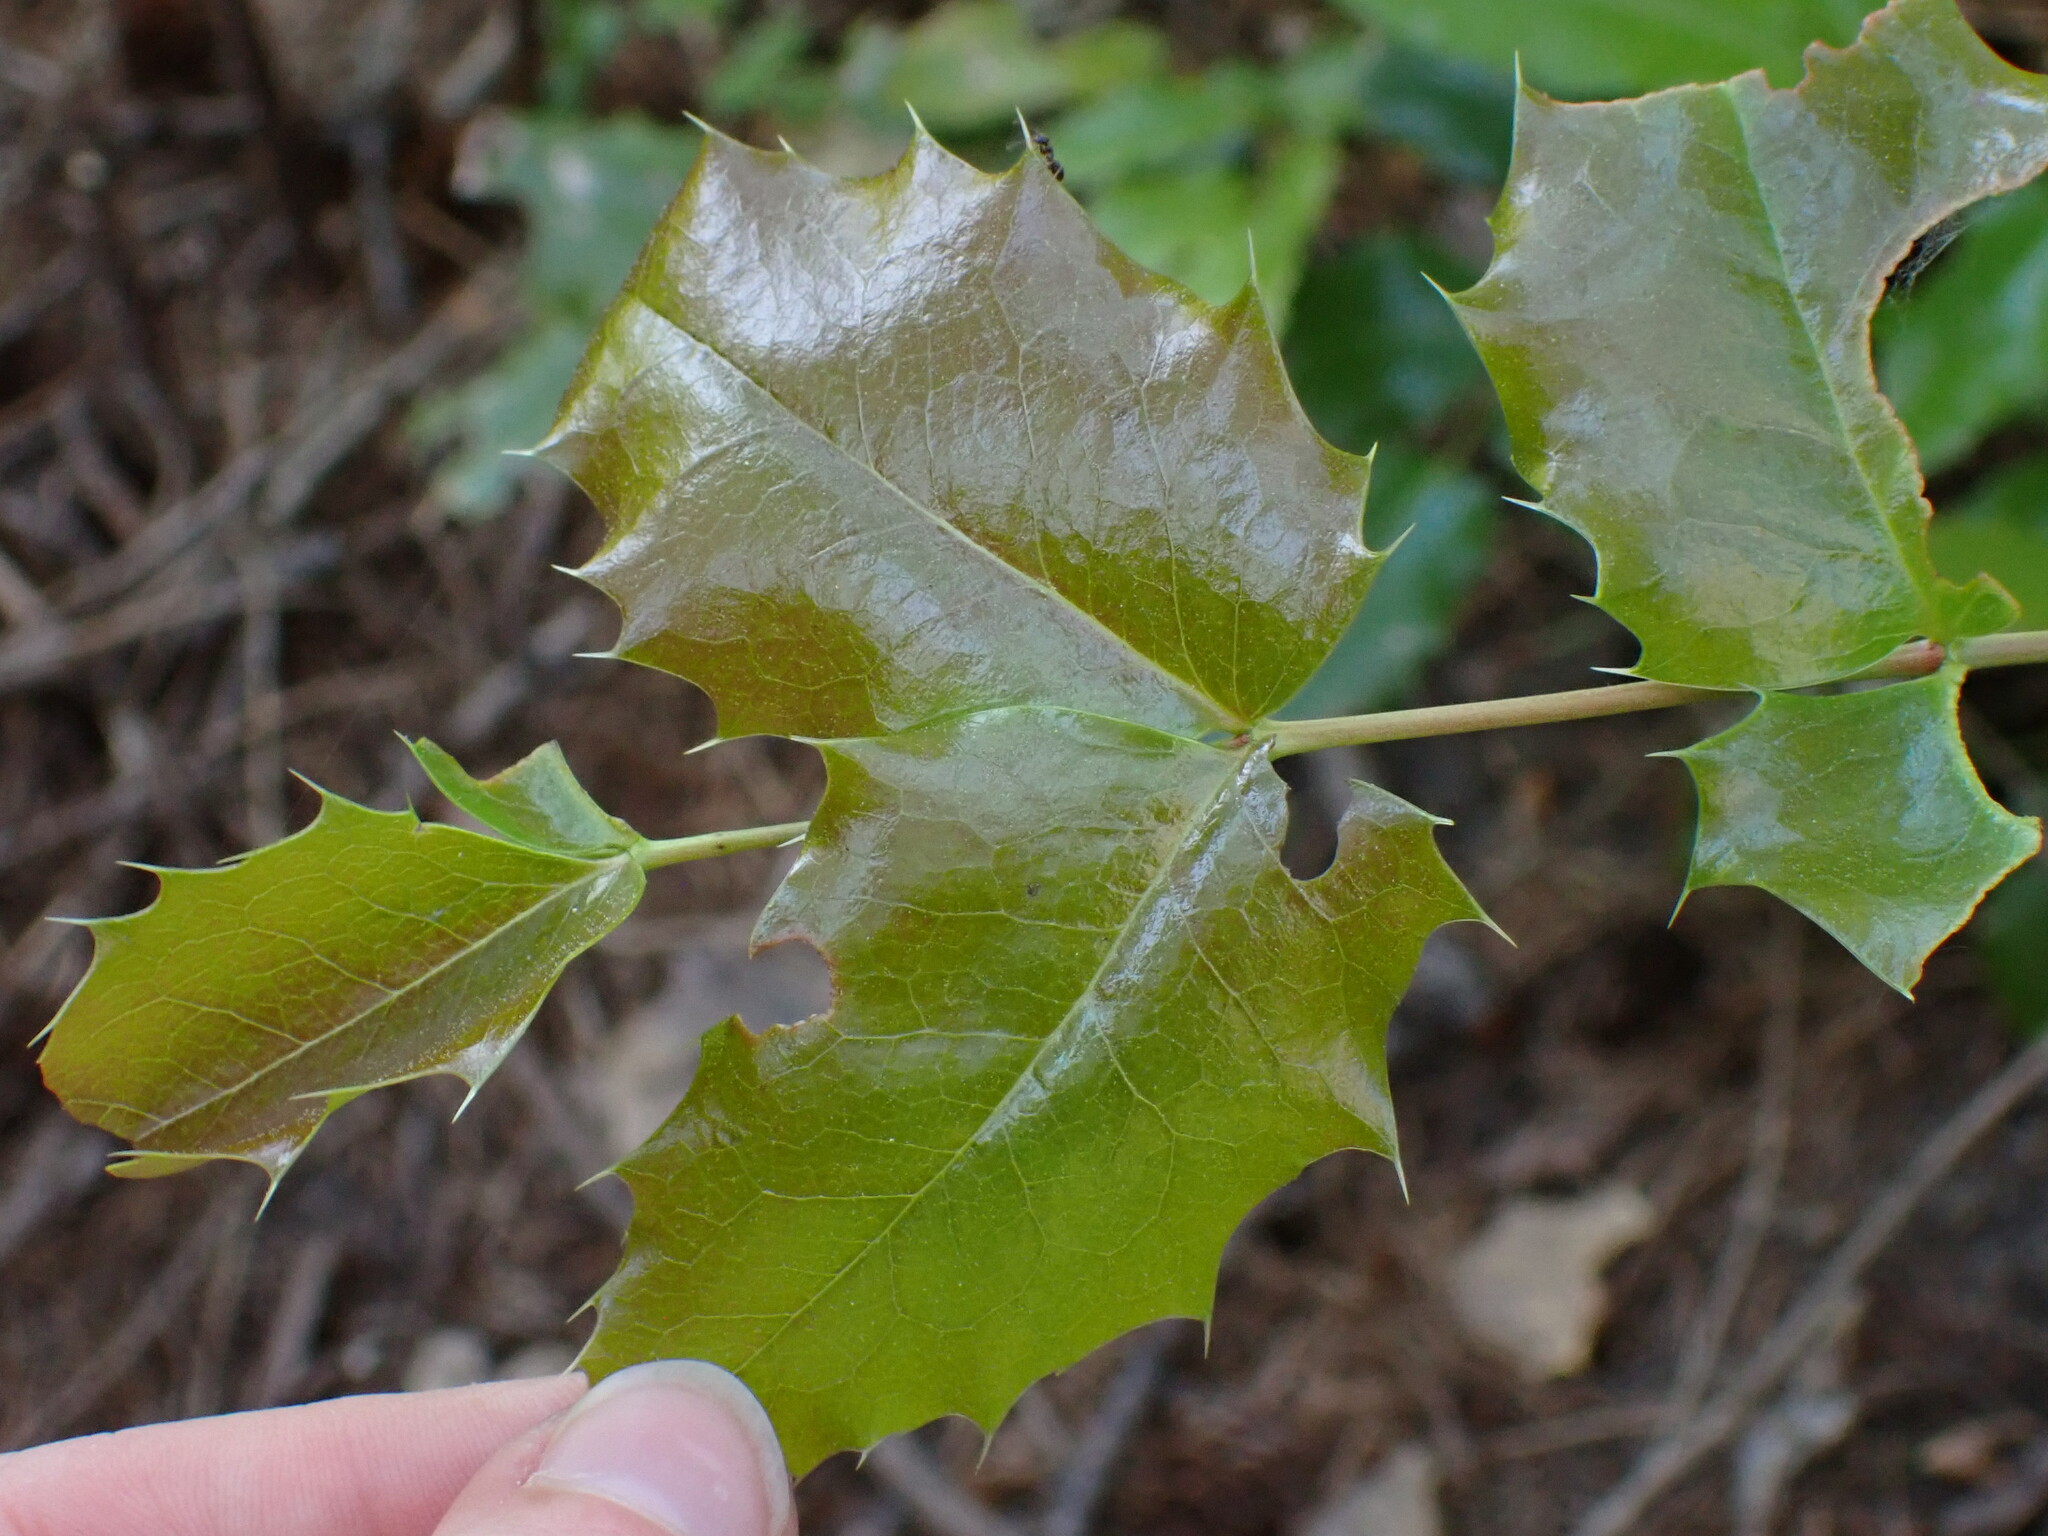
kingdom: Plantae
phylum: Tracheophyta
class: Magnoliopsida
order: Ranunculales
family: Berberidaceae
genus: Mahonia
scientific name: Mahonia aquifolium
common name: Oregon-grape
